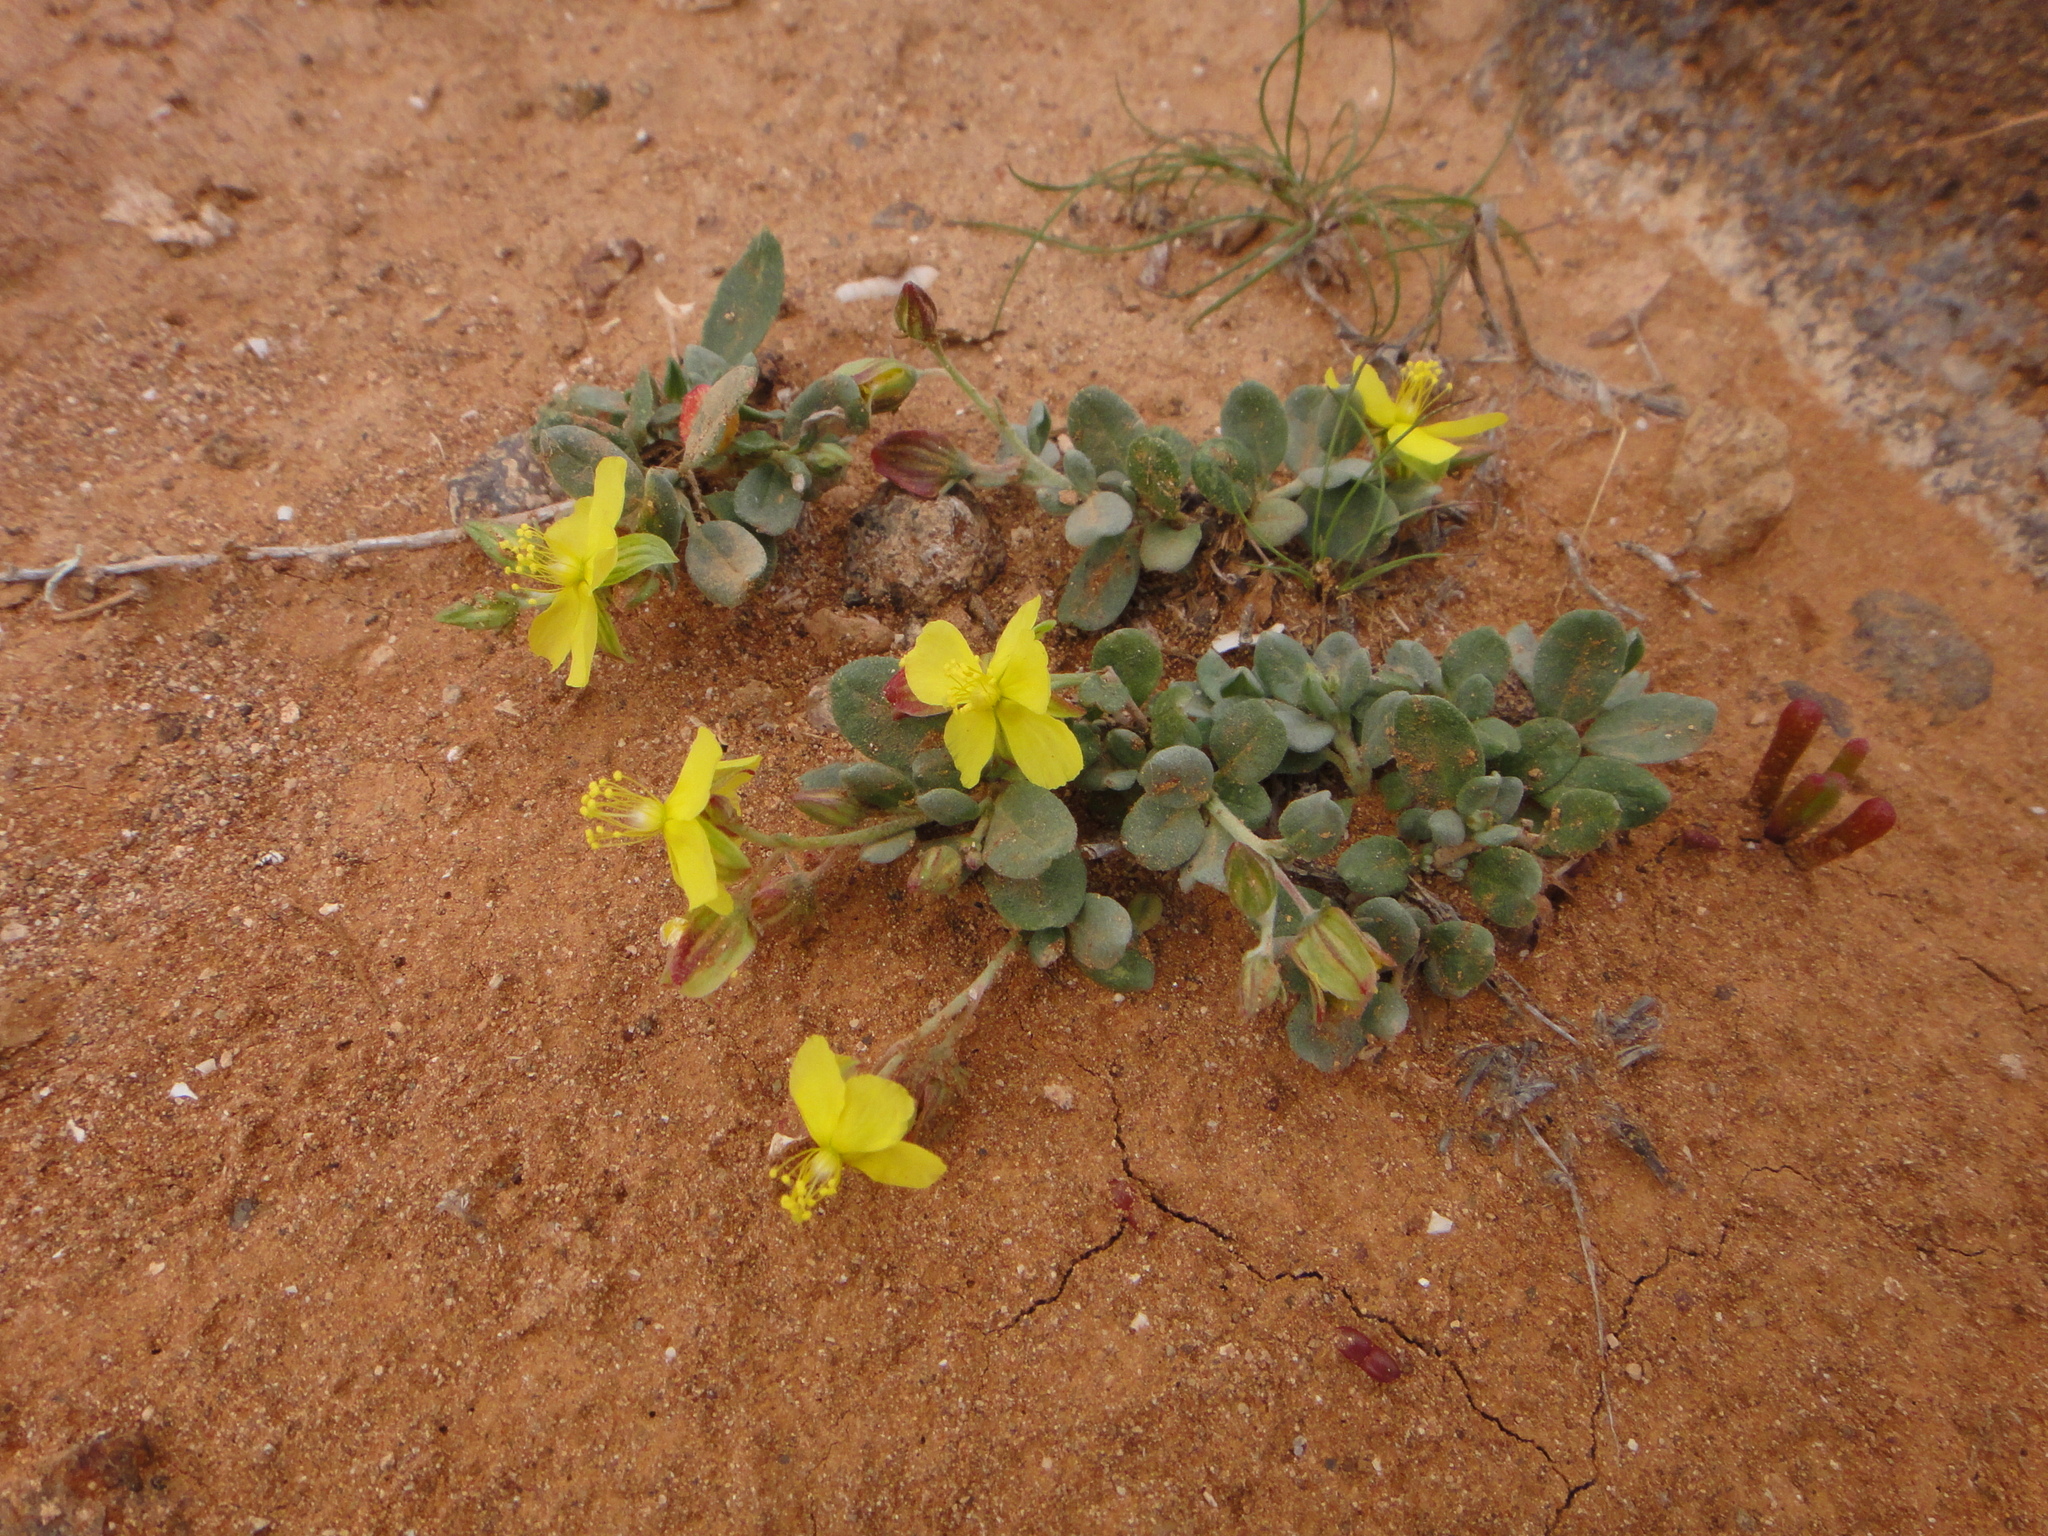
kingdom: Plantae
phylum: Tracheophyta
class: Magnoliopsida
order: Malvales
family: Cistaceae
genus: Helianthemum
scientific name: Helianthemum canariense
